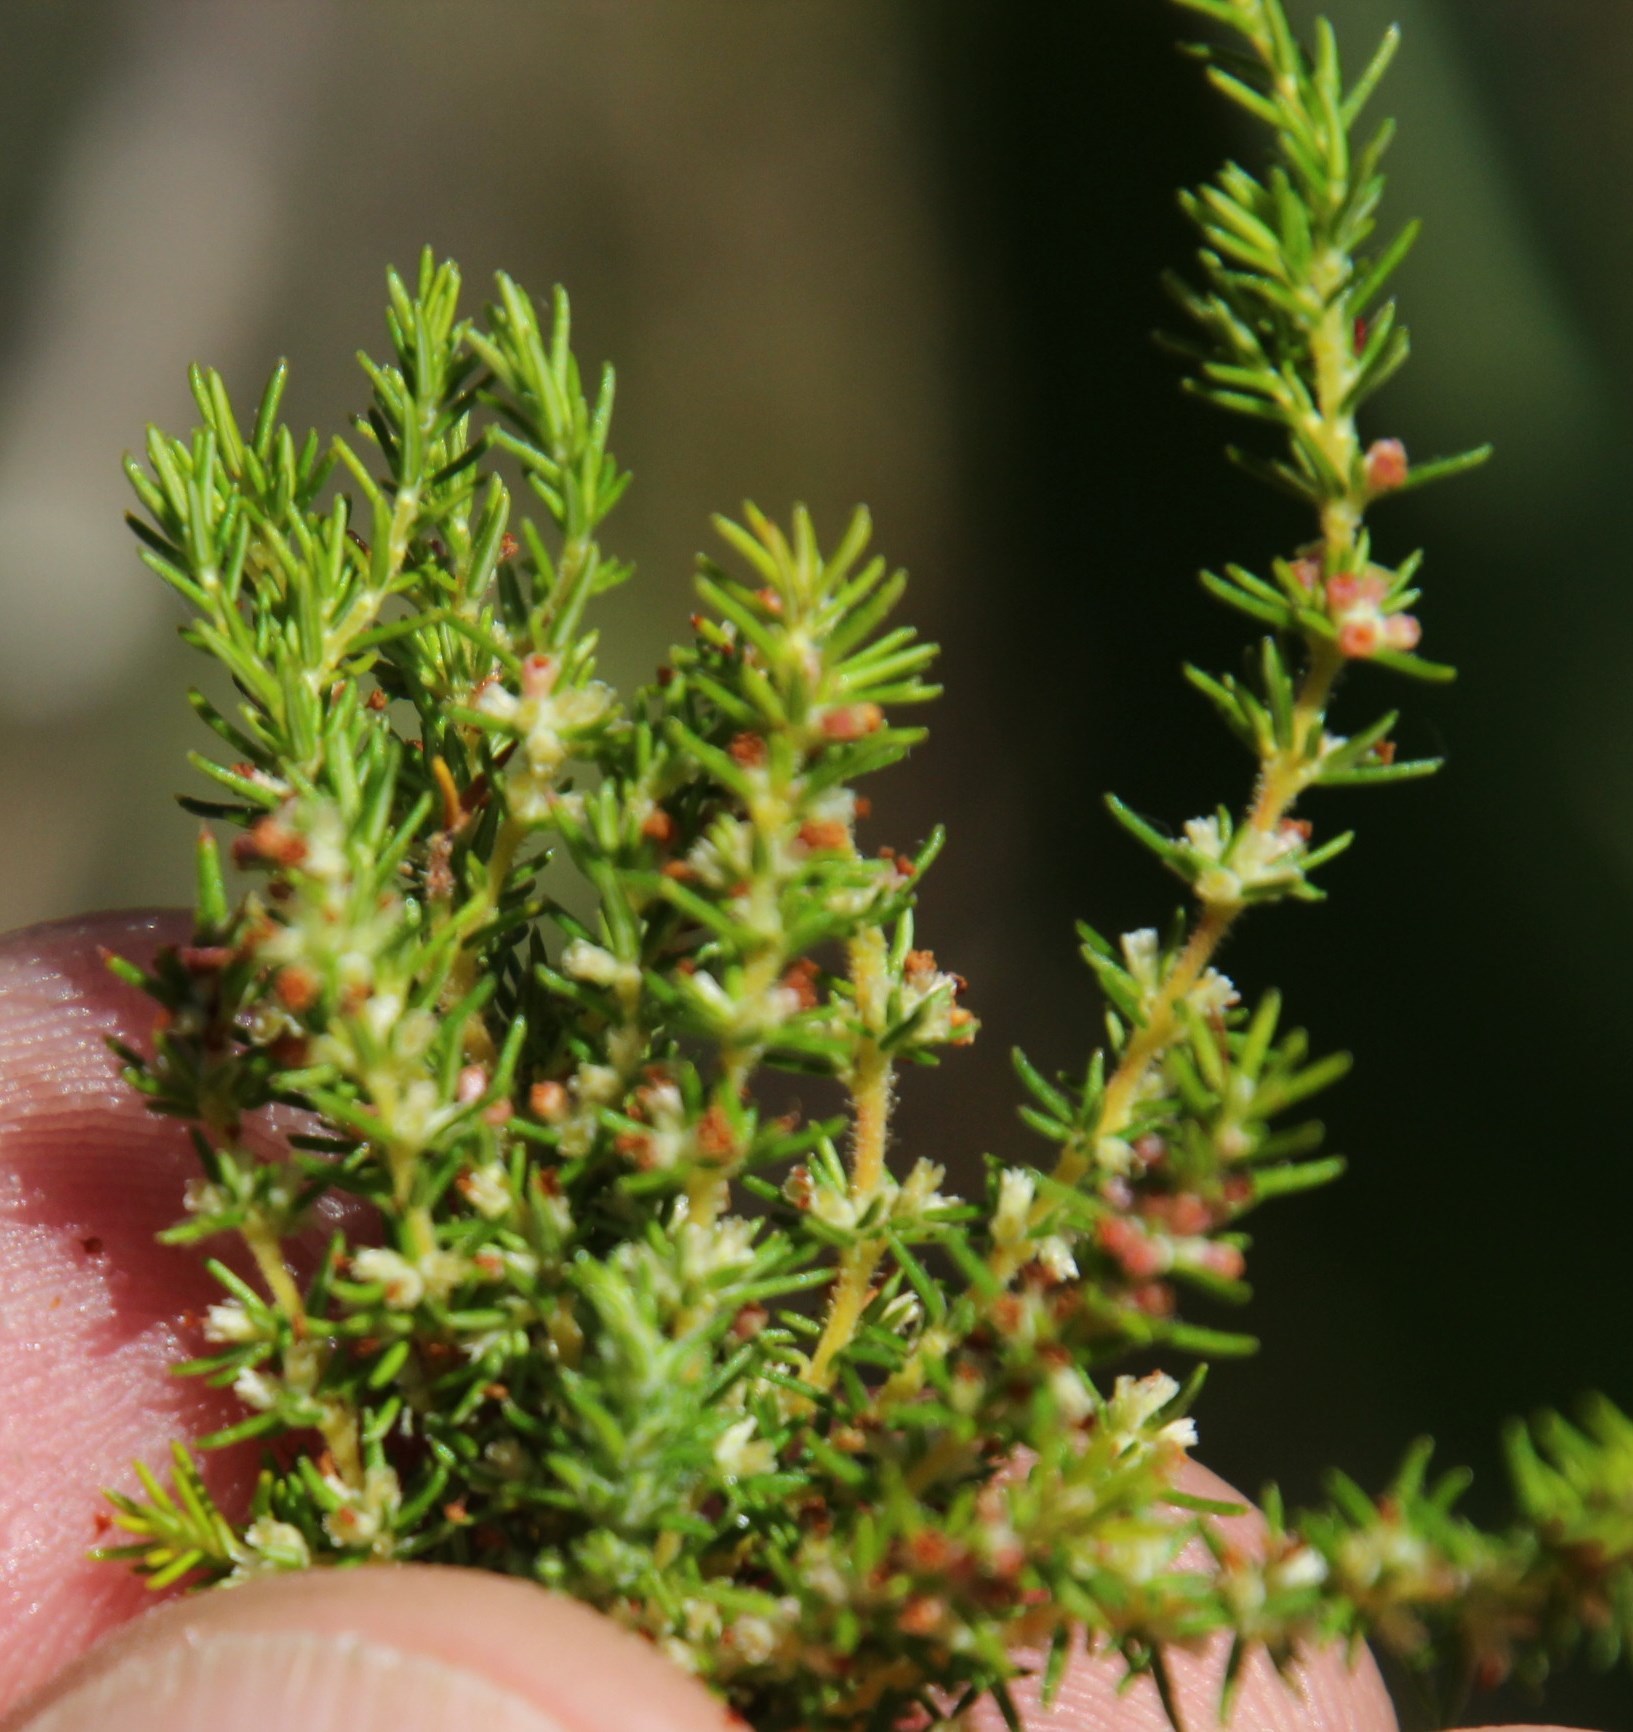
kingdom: Plantae
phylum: Tracheophyta
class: Magnoliopsida
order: Ericales
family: Ericaceae
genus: Erica
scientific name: Erica muscosa
